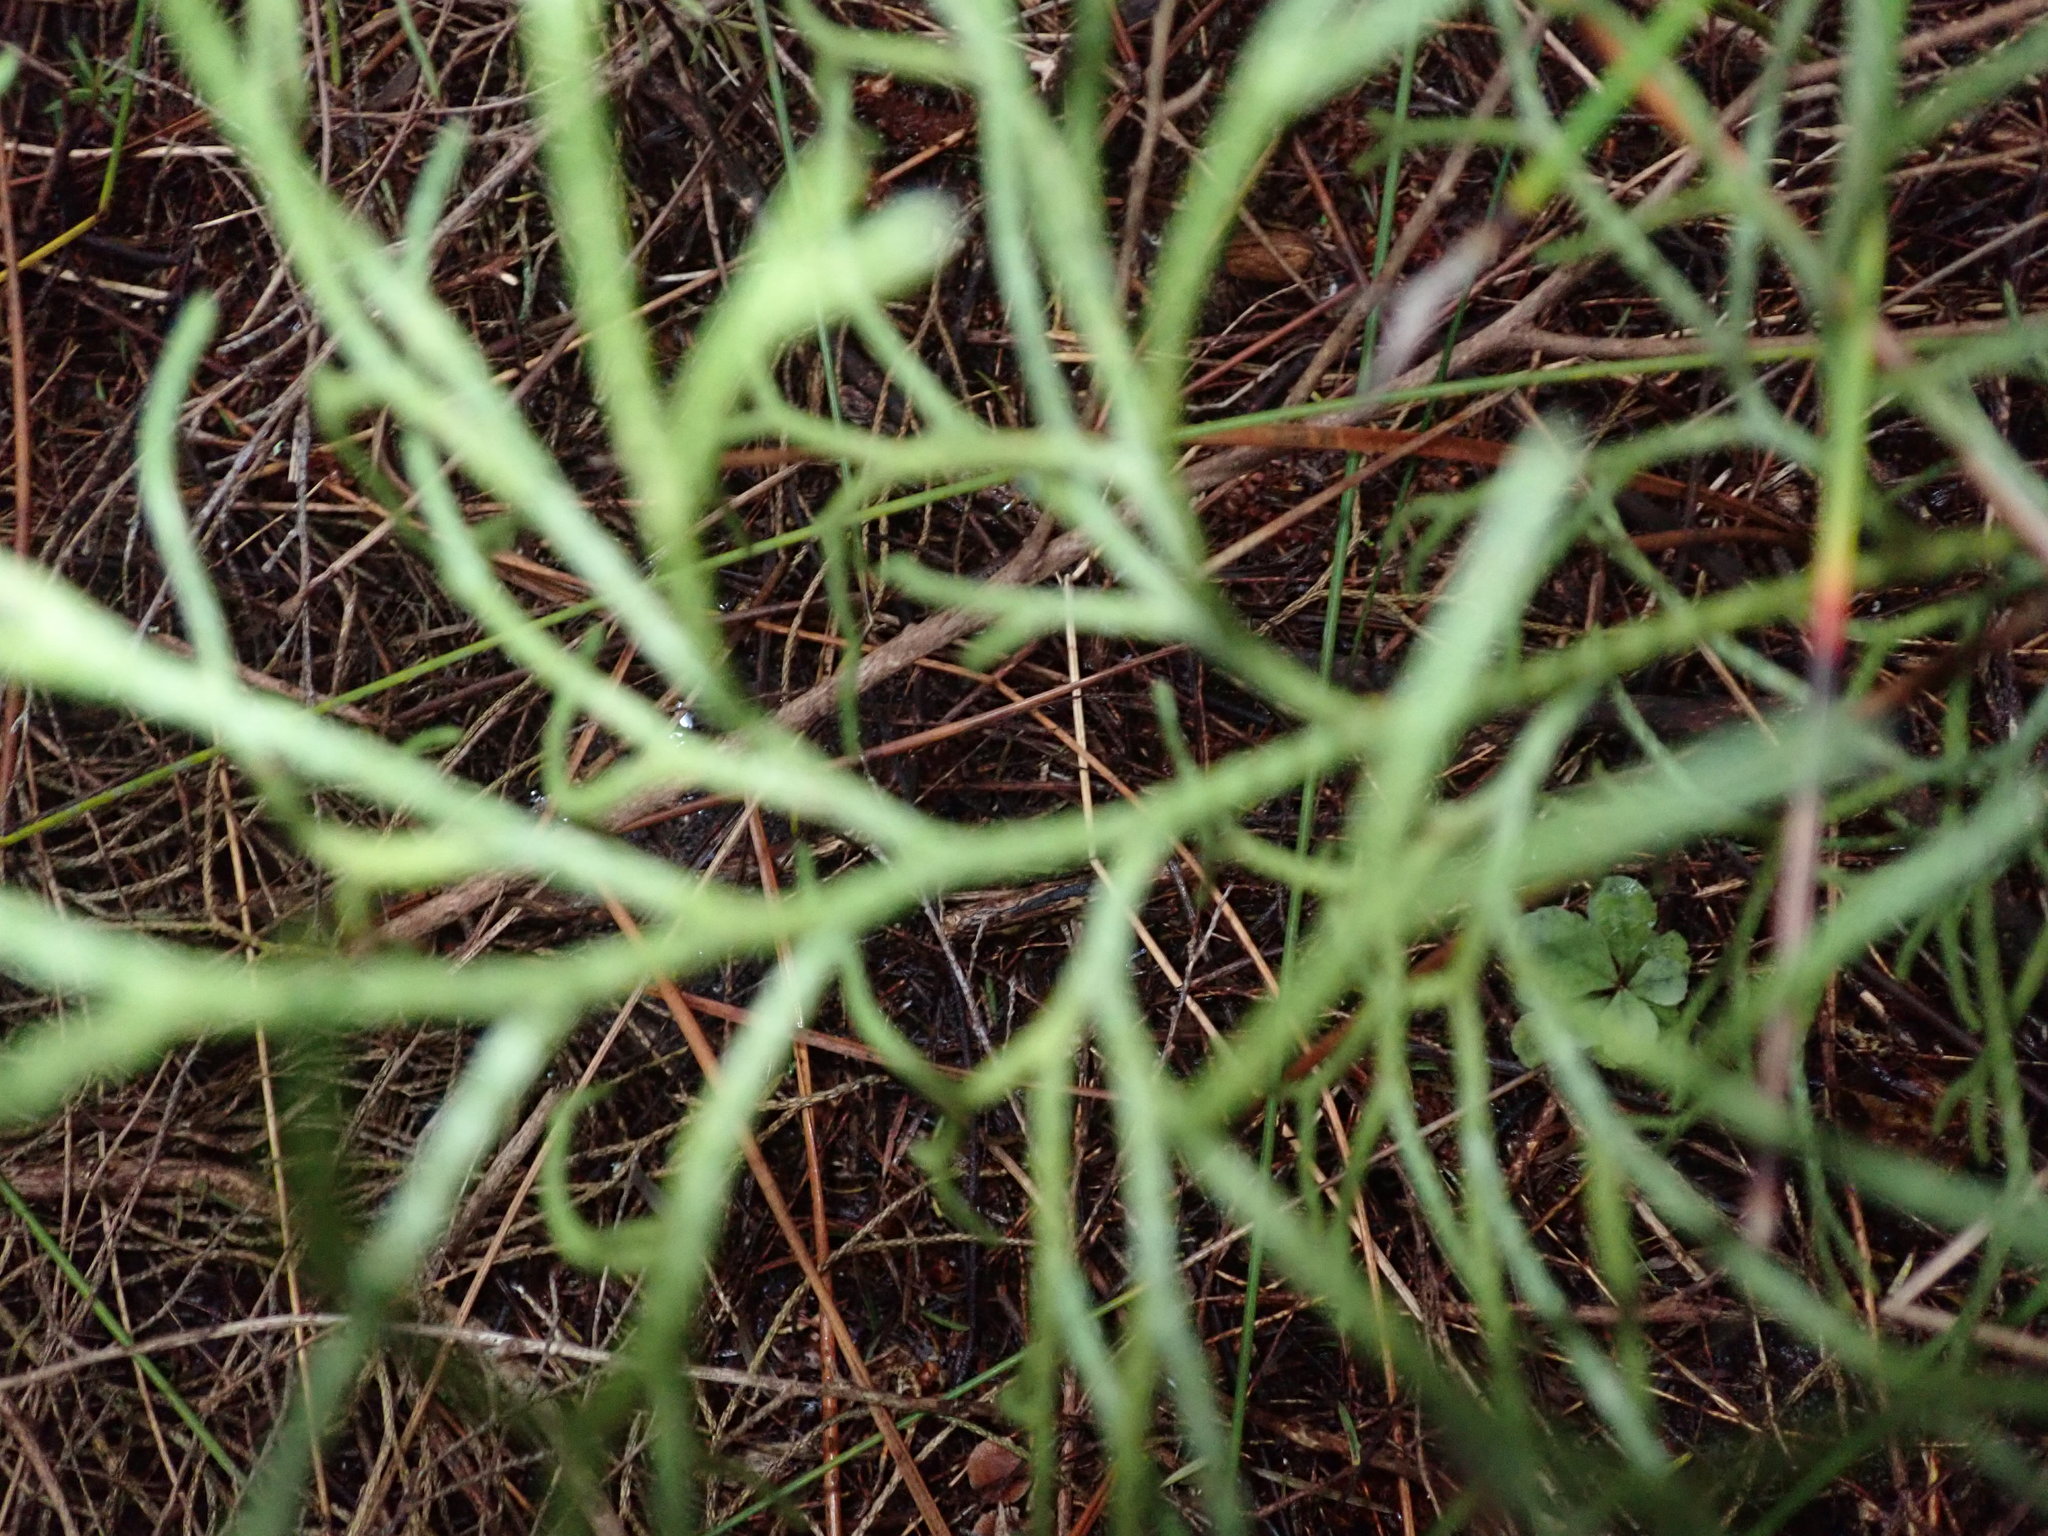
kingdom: Plantae
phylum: Tracheophyta
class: Lycopodiopsida
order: Lycopodiales
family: Lycopodiaceae
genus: Pseudolycopodium
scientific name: Pseudolycopodium densum
